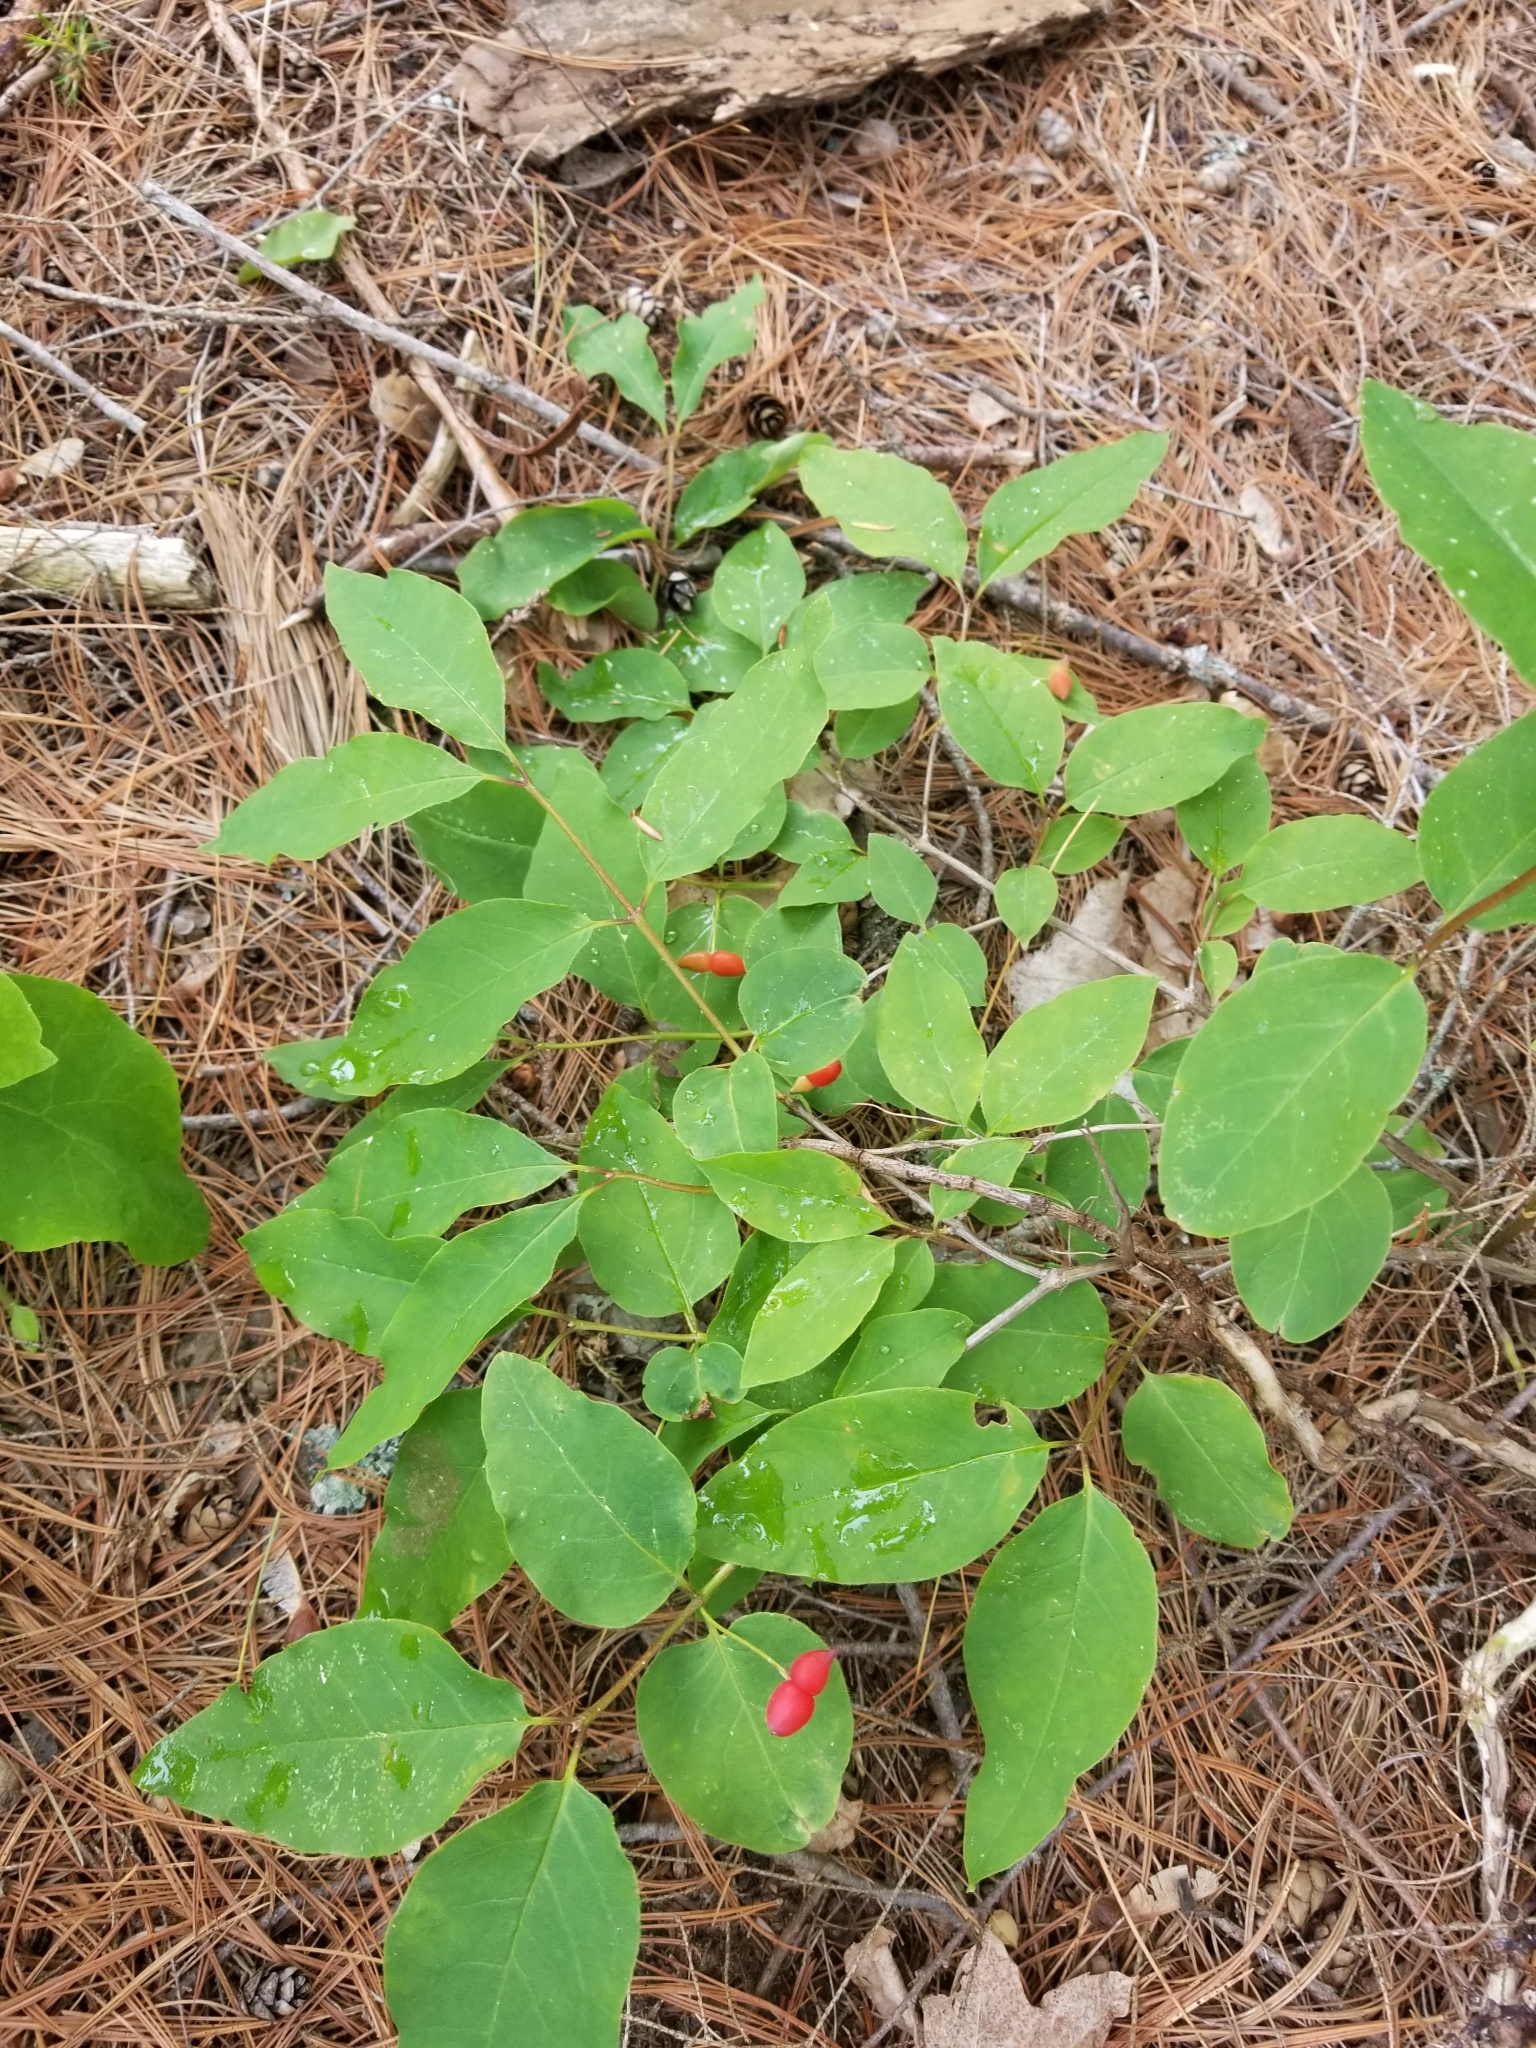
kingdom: Plantae
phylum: Tracheophyta
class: Magnoliopsida
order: Dipsacales
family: Caprifoliaceae
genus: Lonicera
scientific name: Lonicera canadensis
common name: American fly-honeysuckle
